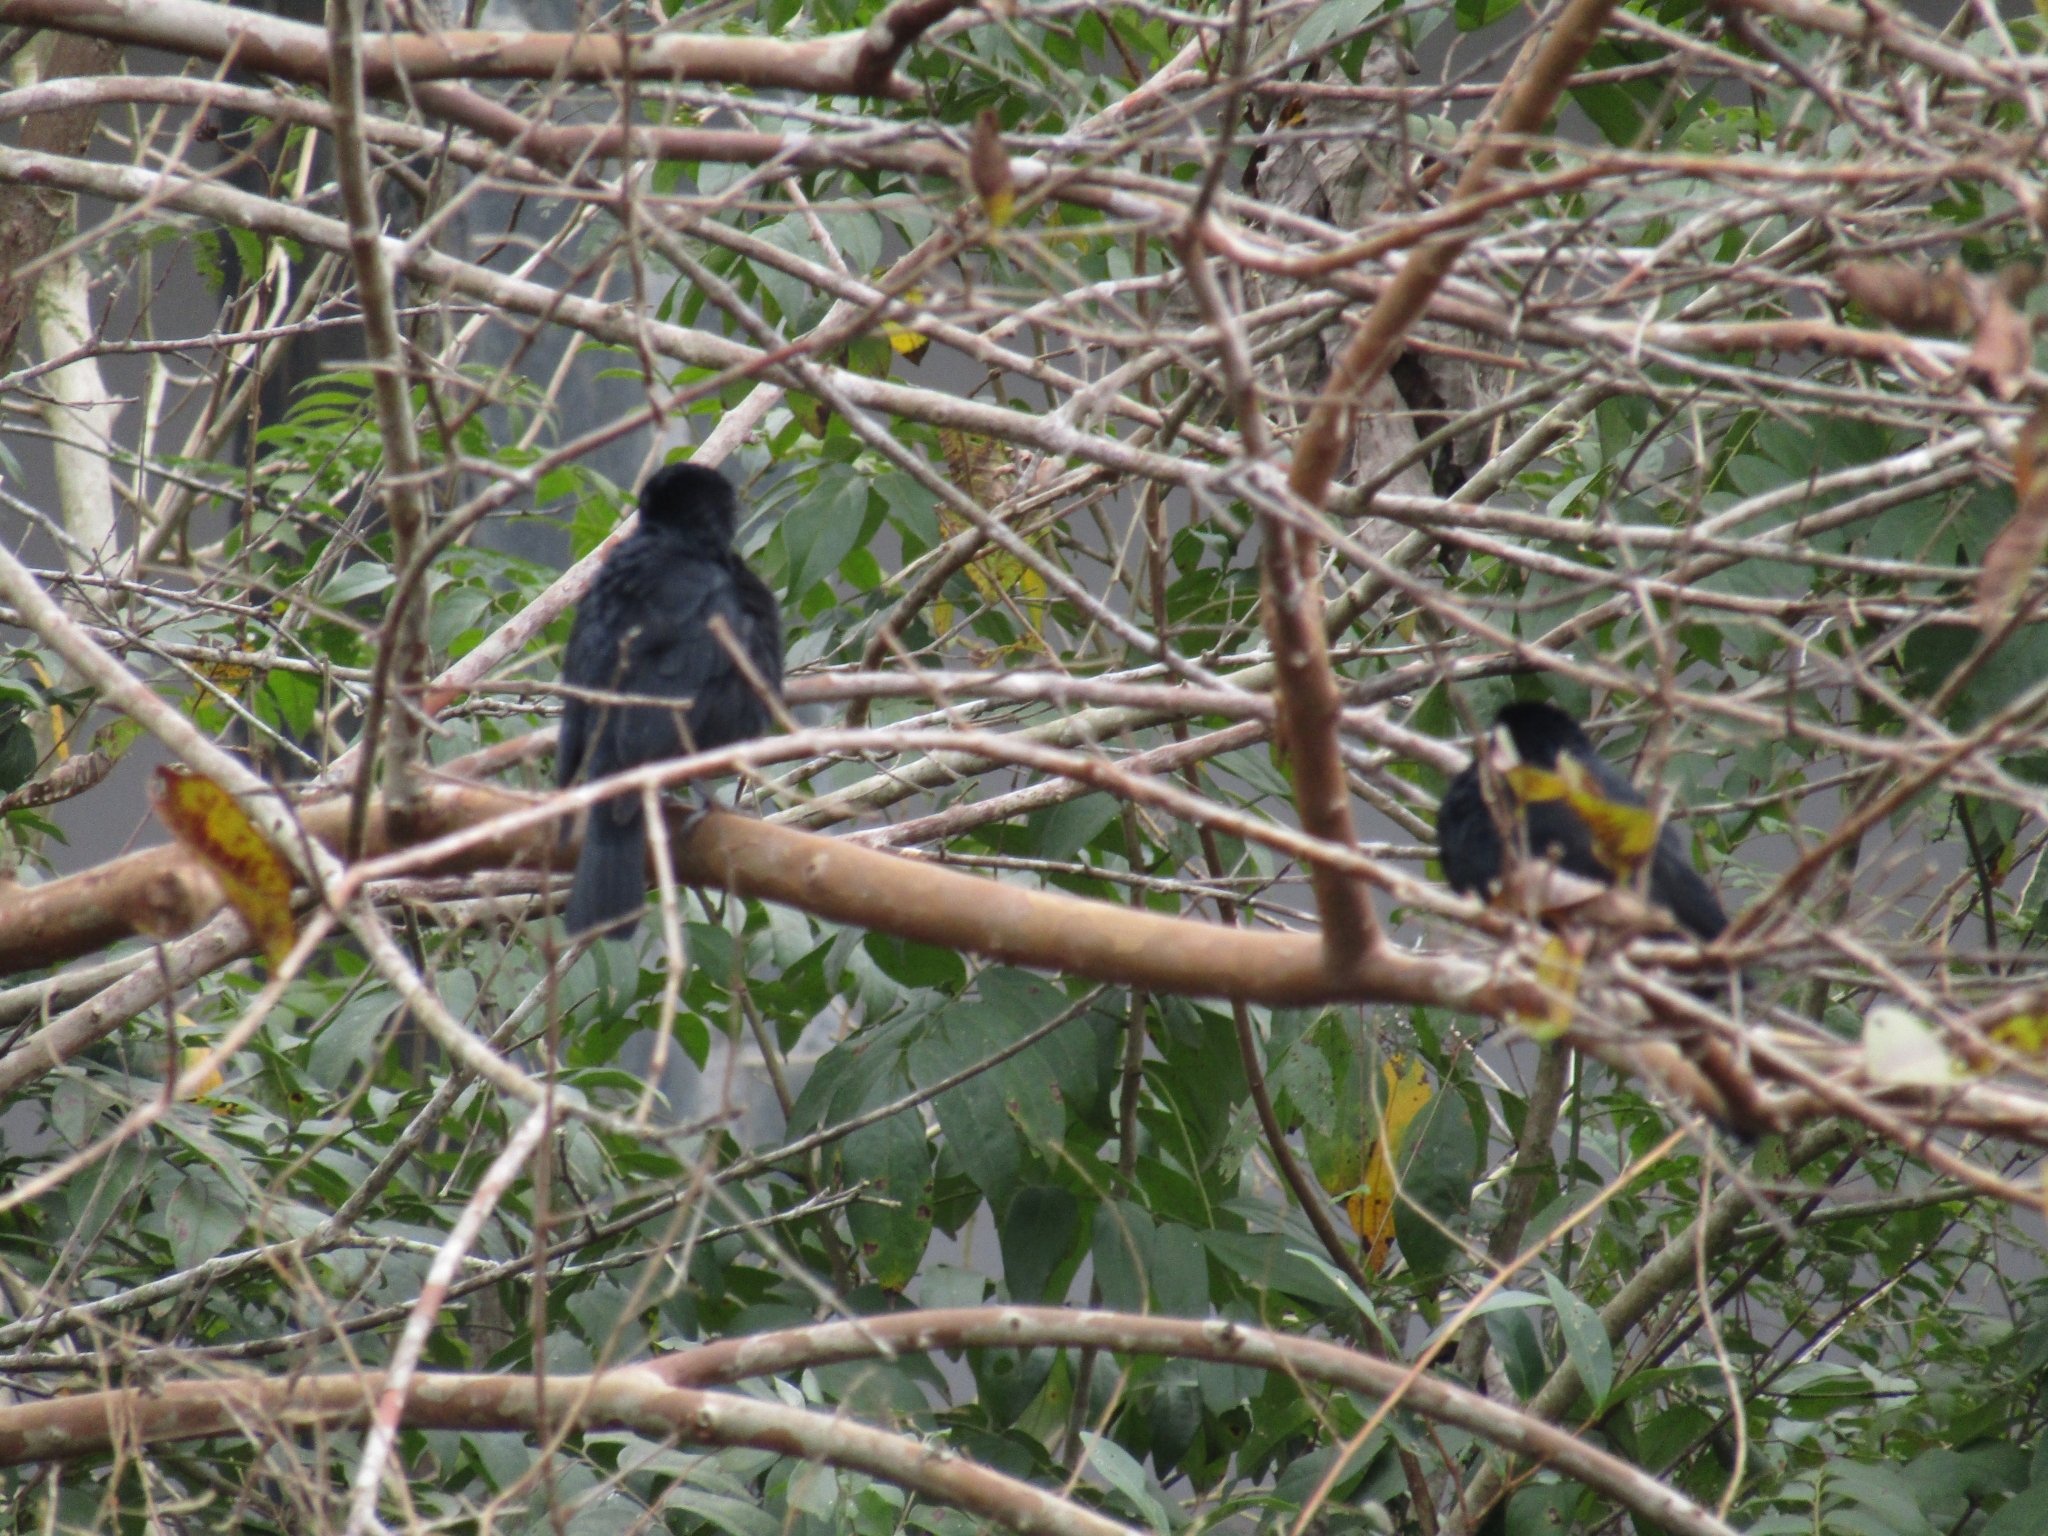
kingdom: Animalia
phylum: Chordata
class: Aves
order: Passeriformes
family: Icteridae
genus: Gnorimopsar
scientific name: Gnorimopsar chopi
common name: Chopi blackbird
